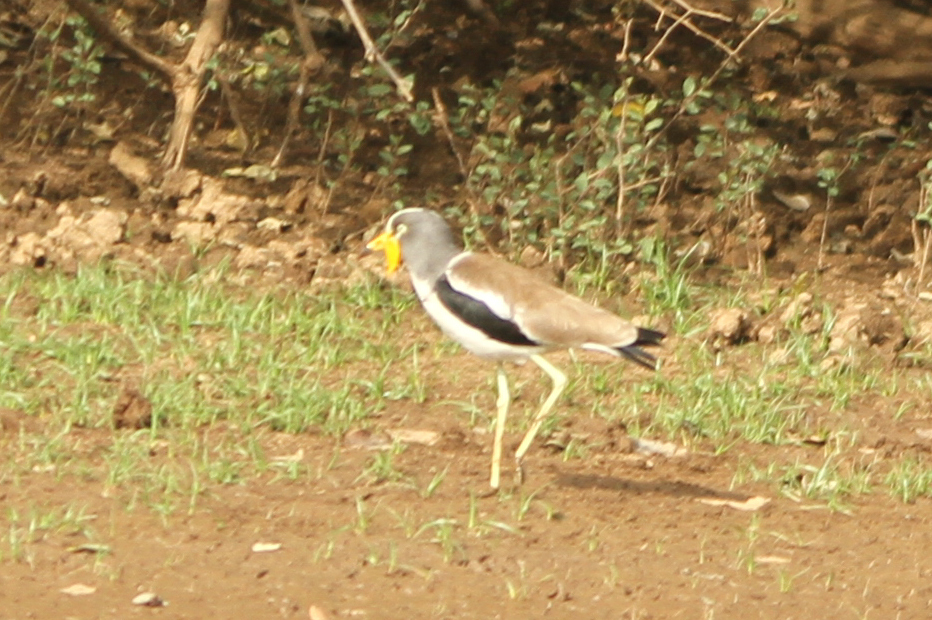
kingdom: Animalia
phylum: Chordata
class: Aves
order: Charadriiformes
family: Charadriidae
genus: Vanellus
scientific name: Vanellus senegallus
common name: African wattled lapwing
